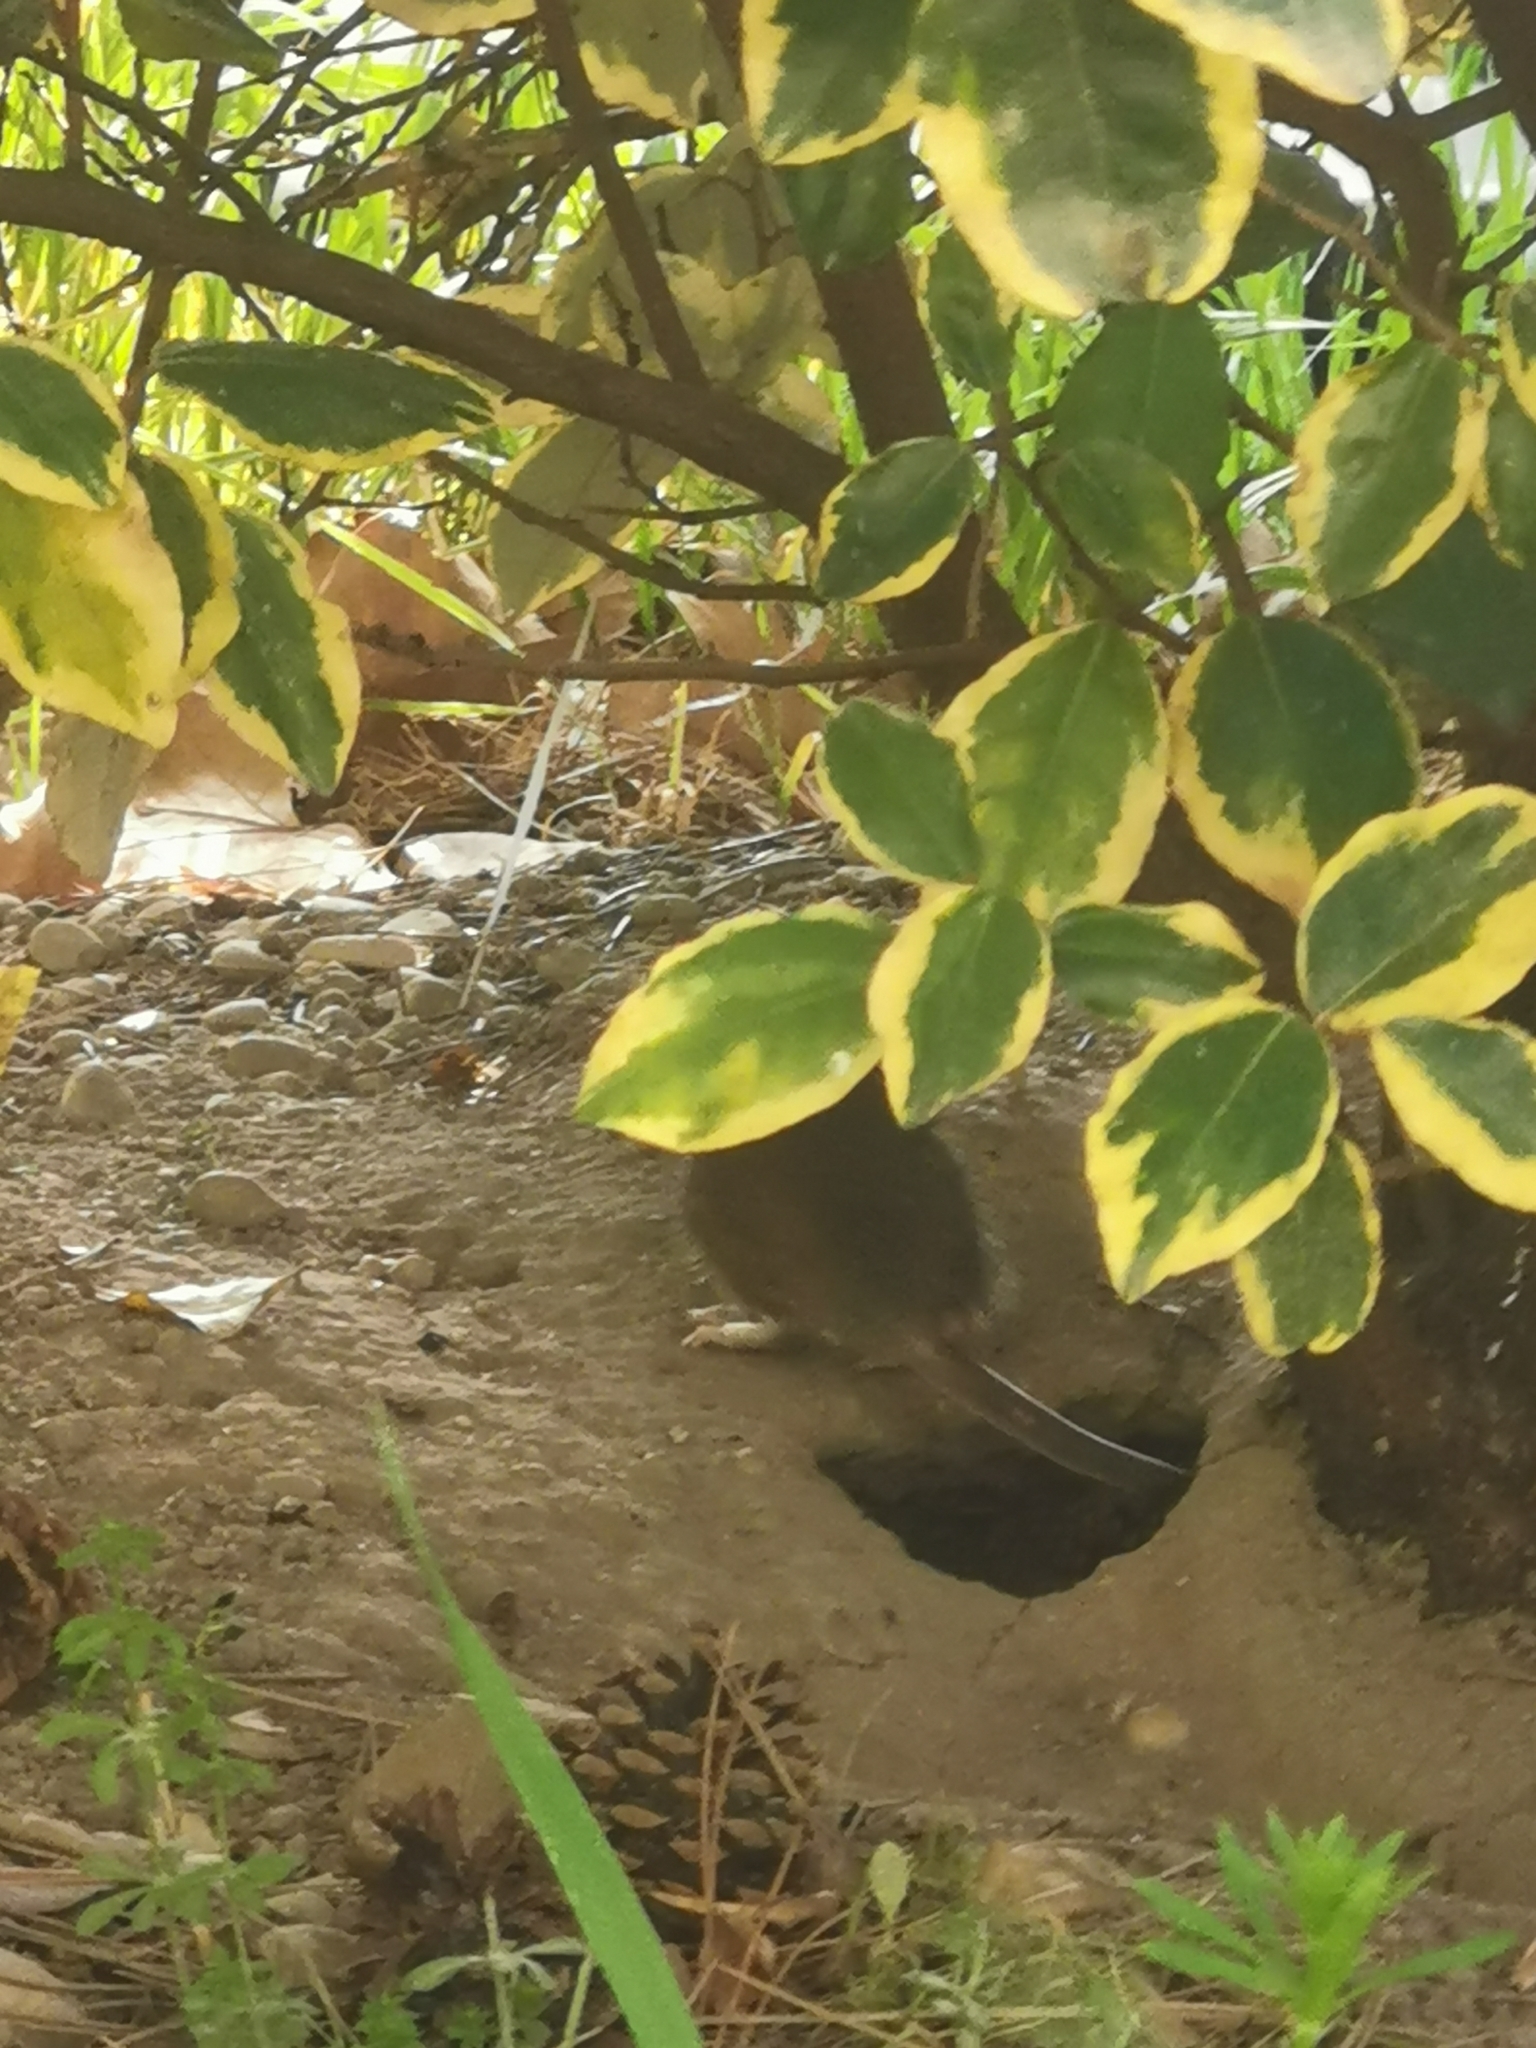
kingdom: Animalia
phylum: Chordata
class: Mammalia
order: Rodentia
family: Muridae
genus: Rattus
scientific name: Rattus norvegicus
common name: Brown rat
